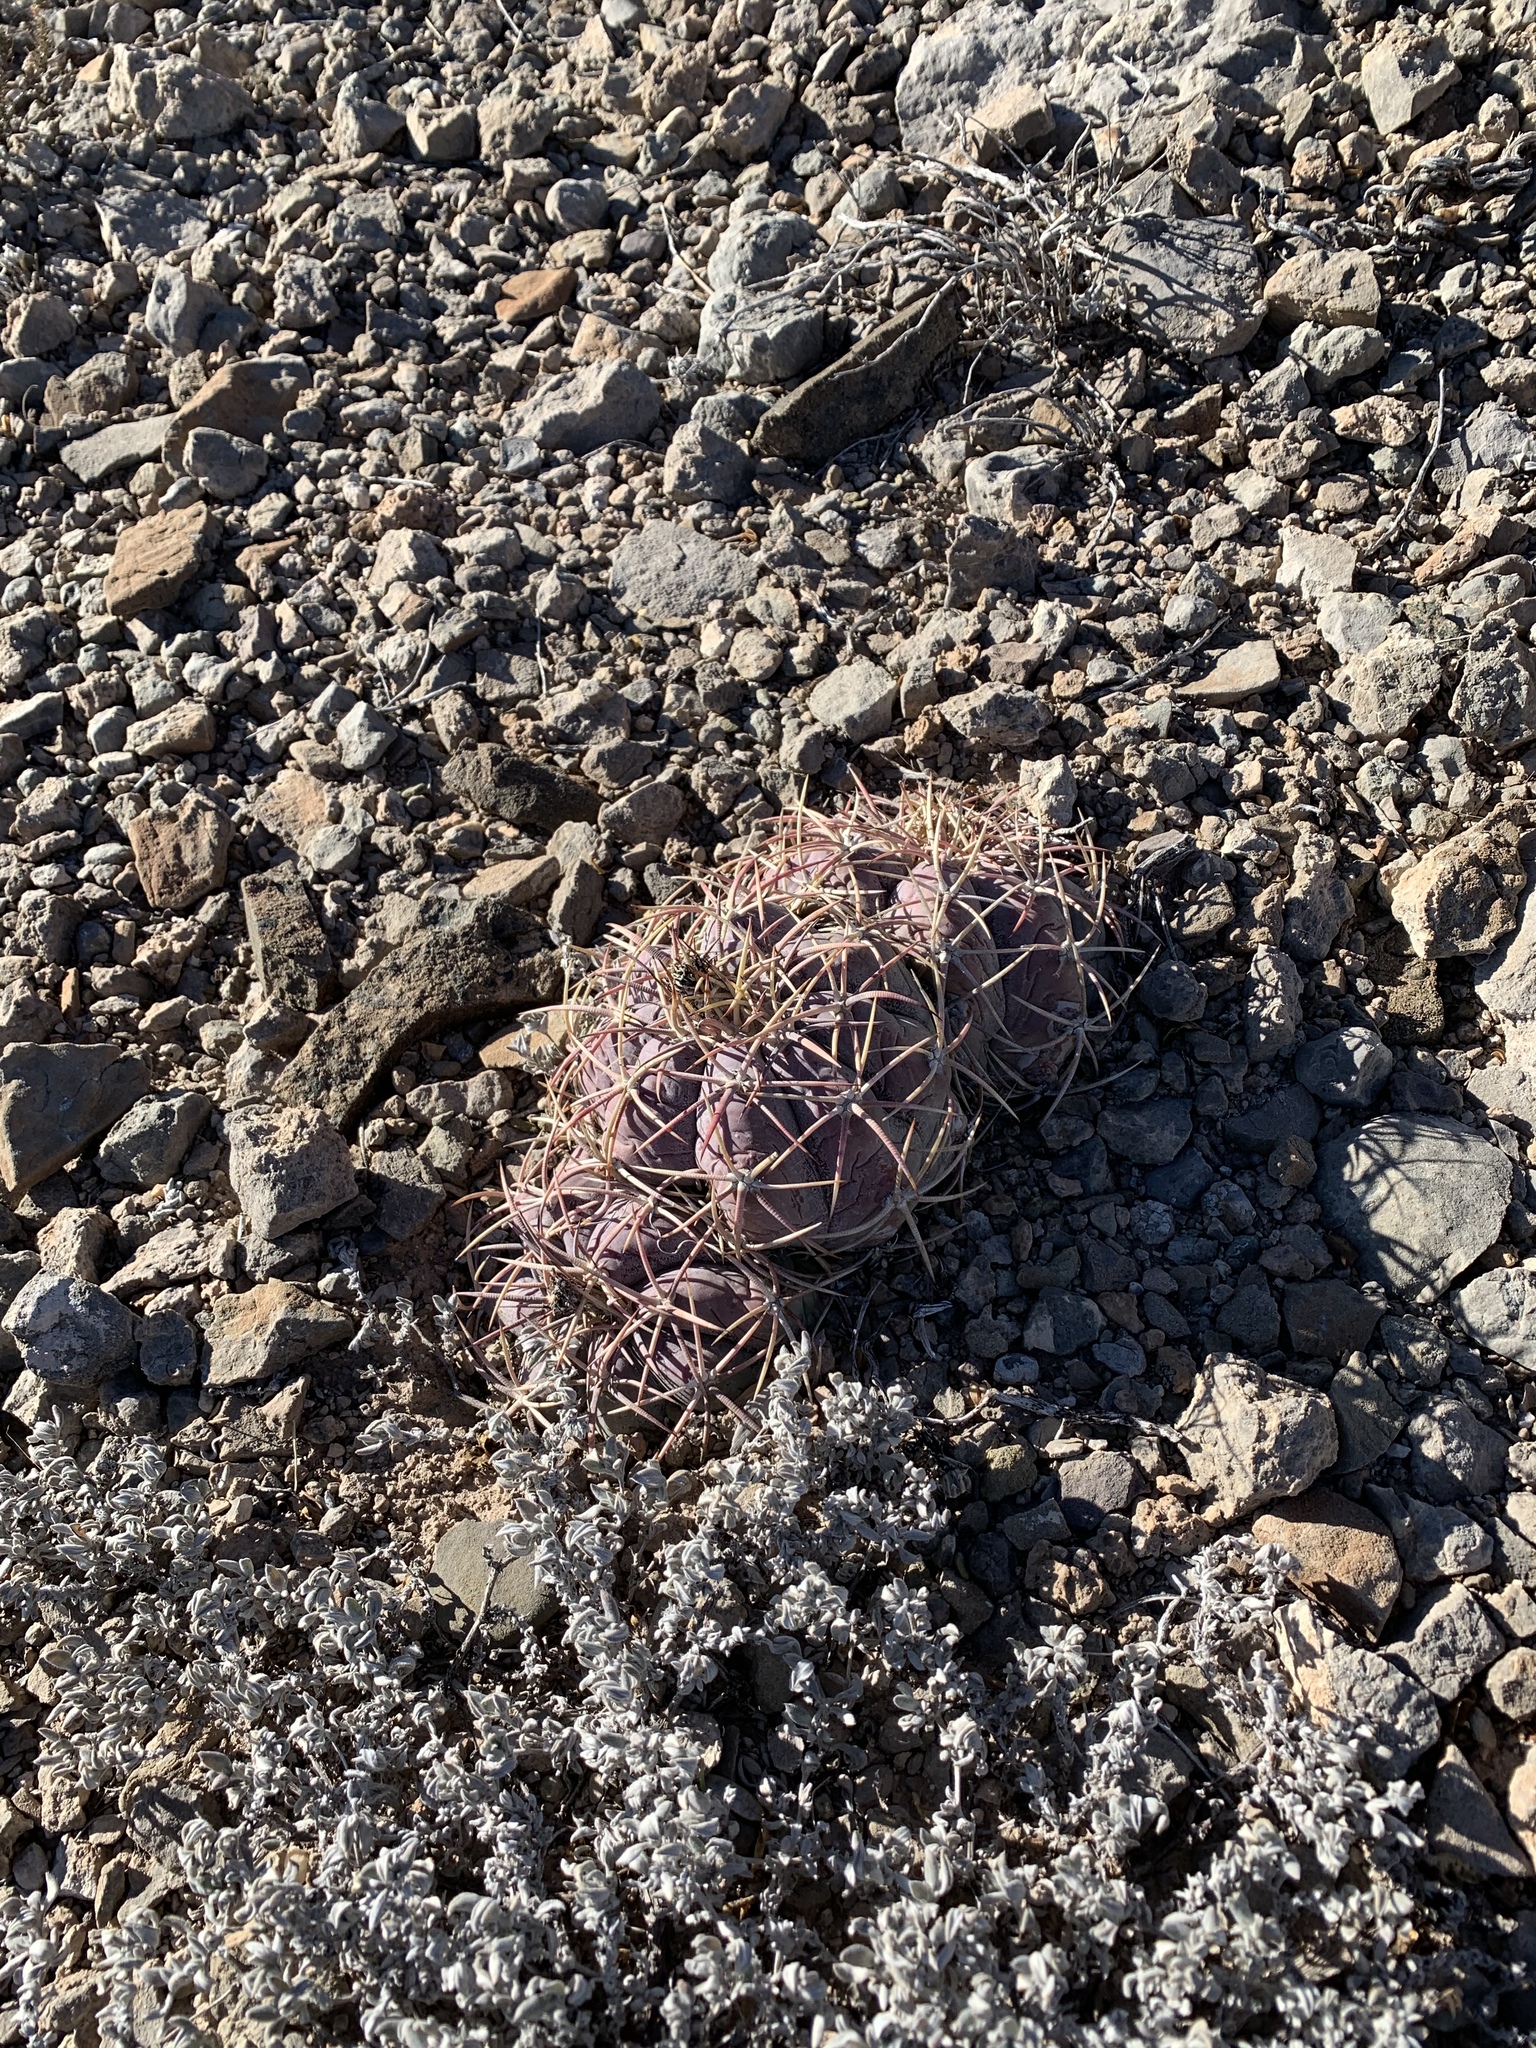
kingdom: Plantae
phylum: Tracheophyta
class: Magnoliopsida
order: Caryophyllales
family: Cactaceae
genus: Echinocactus
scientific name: Echinocactus horizonthalonius
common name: Devilshead
